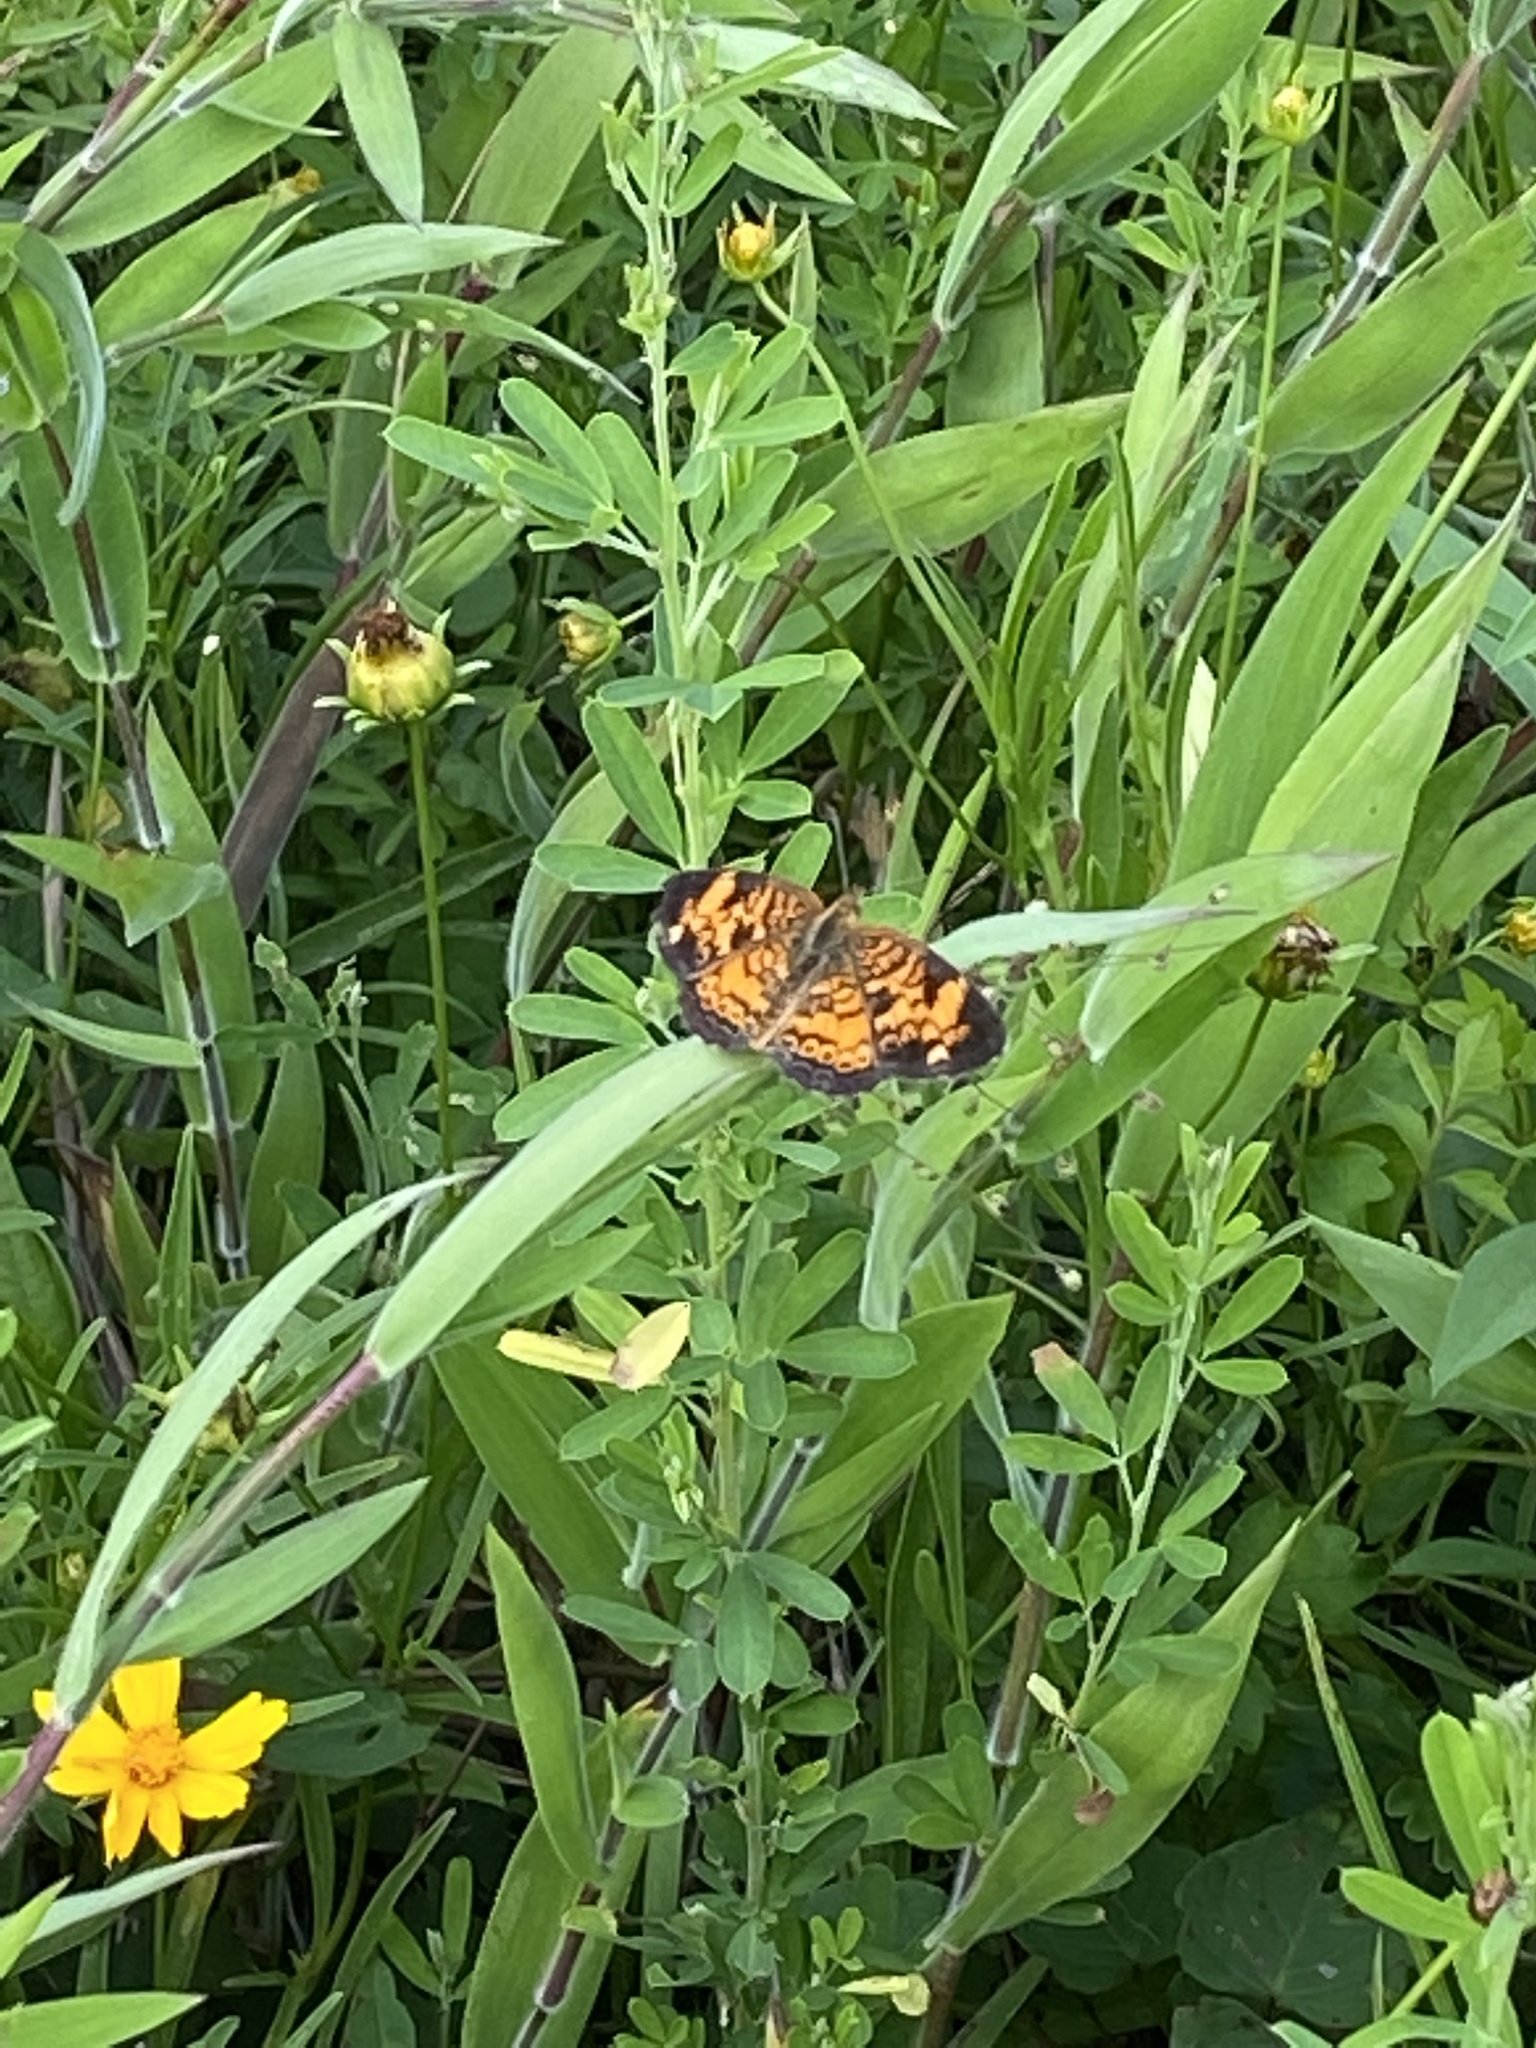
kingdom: Animalia
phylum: Arthropoda
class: Insecta
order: Lepidoptera
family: Nymphalidae
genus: Phyciodes
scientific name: Phyciodes tharos
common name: Pearl crescent
